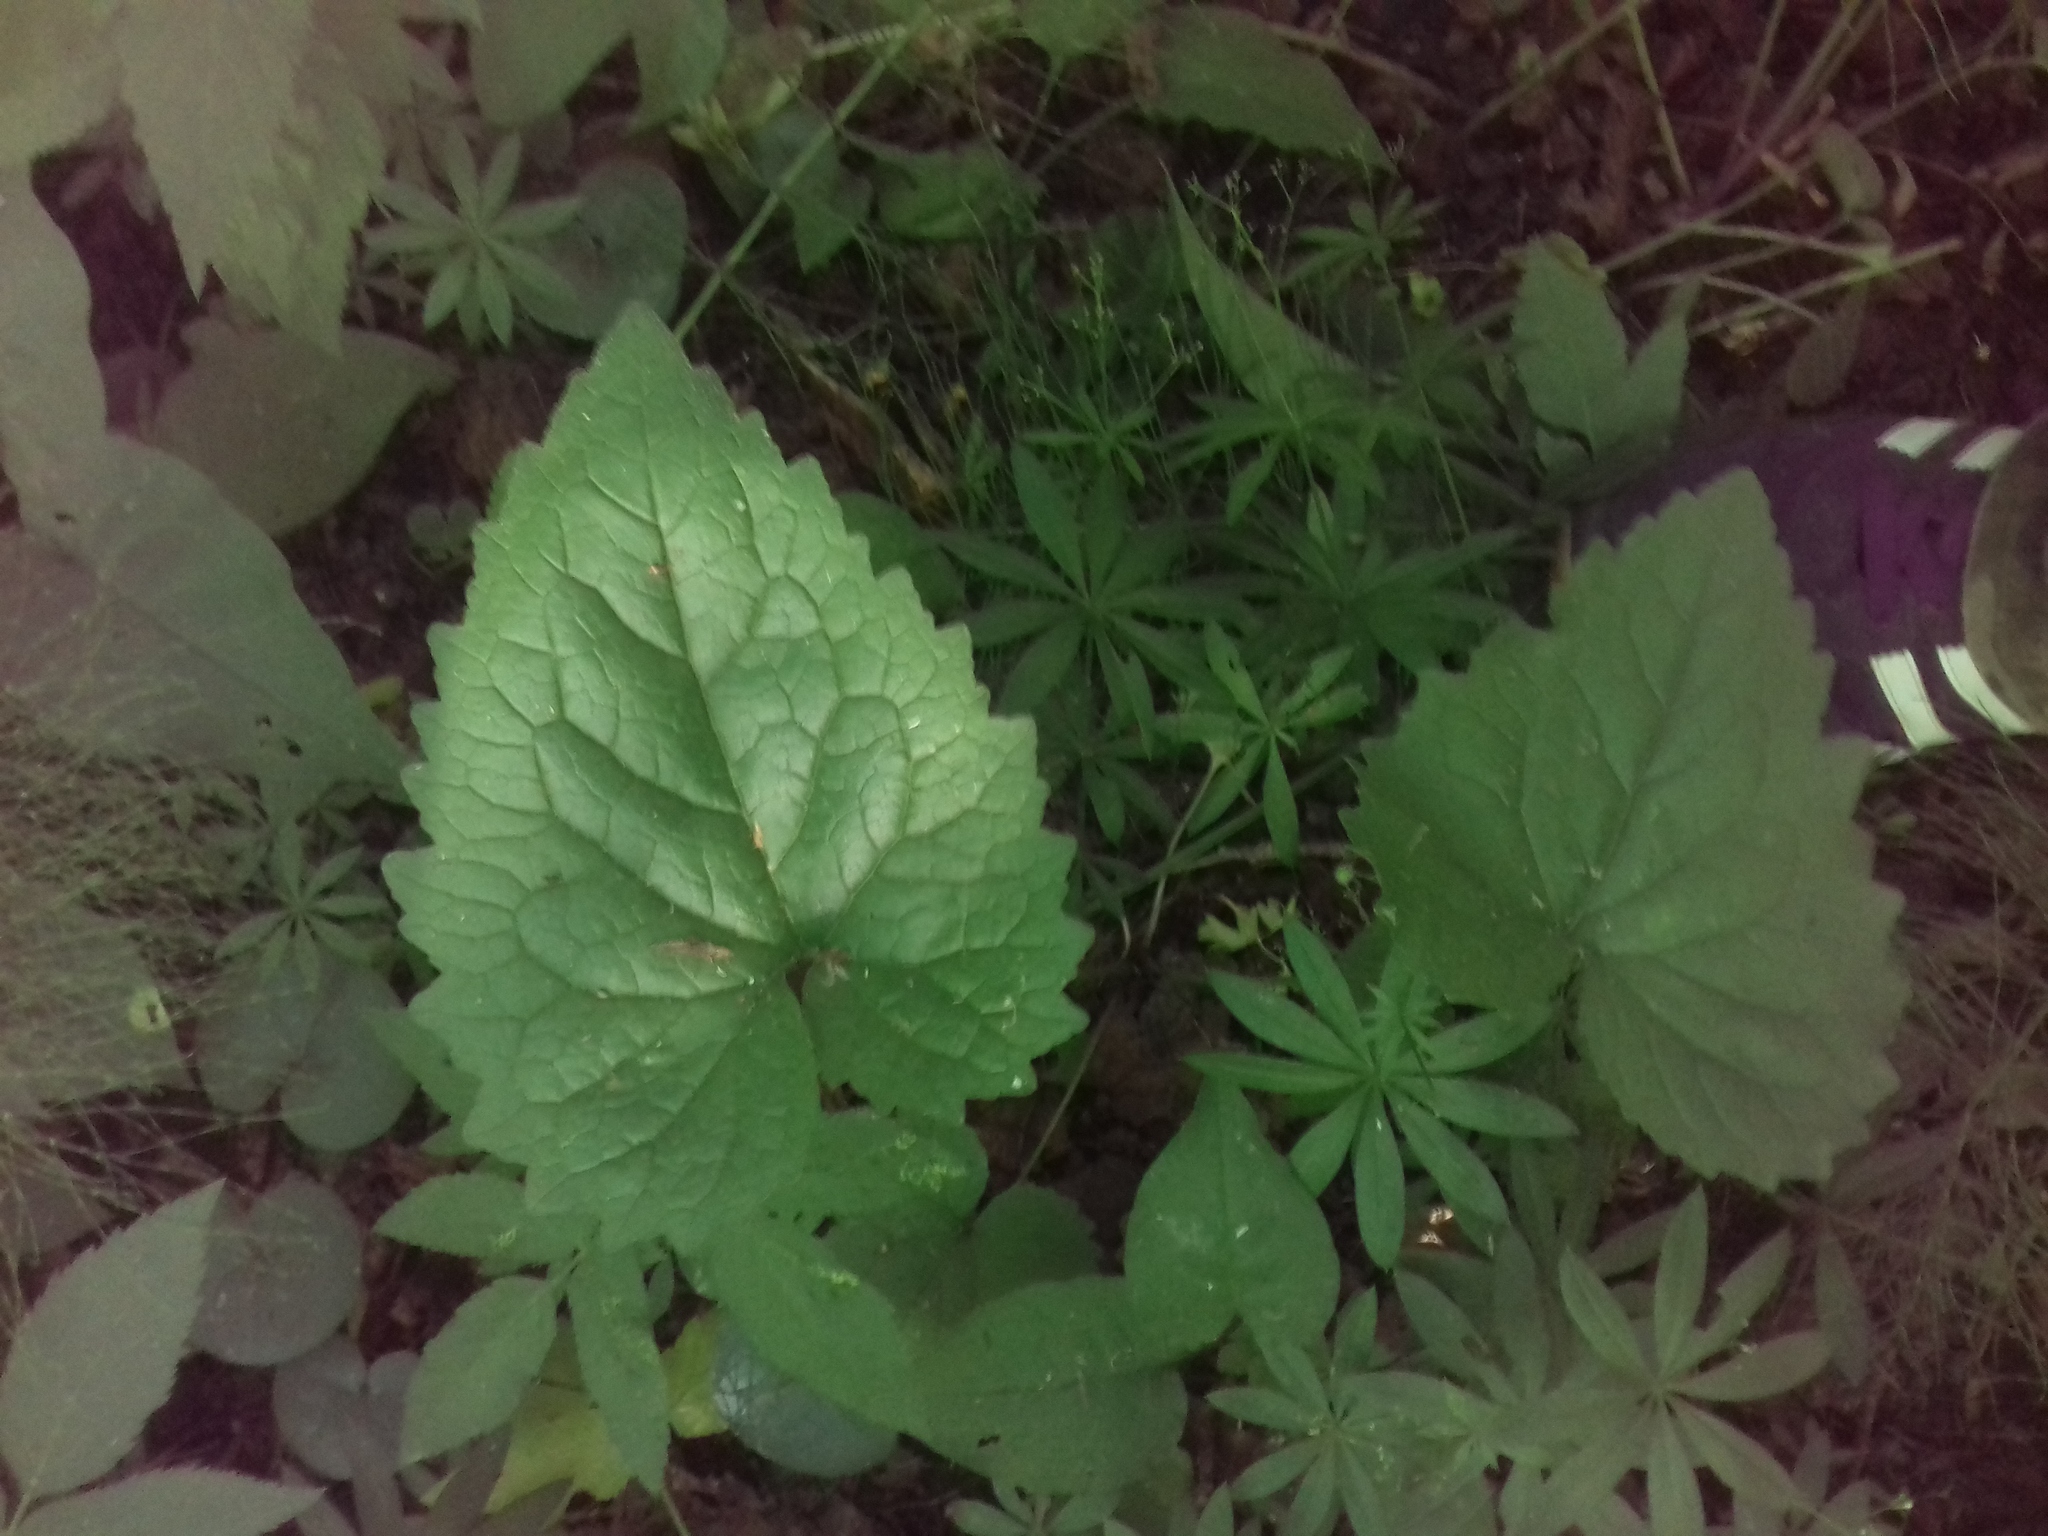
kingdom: Plantae
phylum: Tracheophyta
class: Magnoliopsida
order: Asterales
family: Campanulaceae
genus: Campanula
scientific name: Campanula trachelium
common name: Nettle-leaved bellflower
